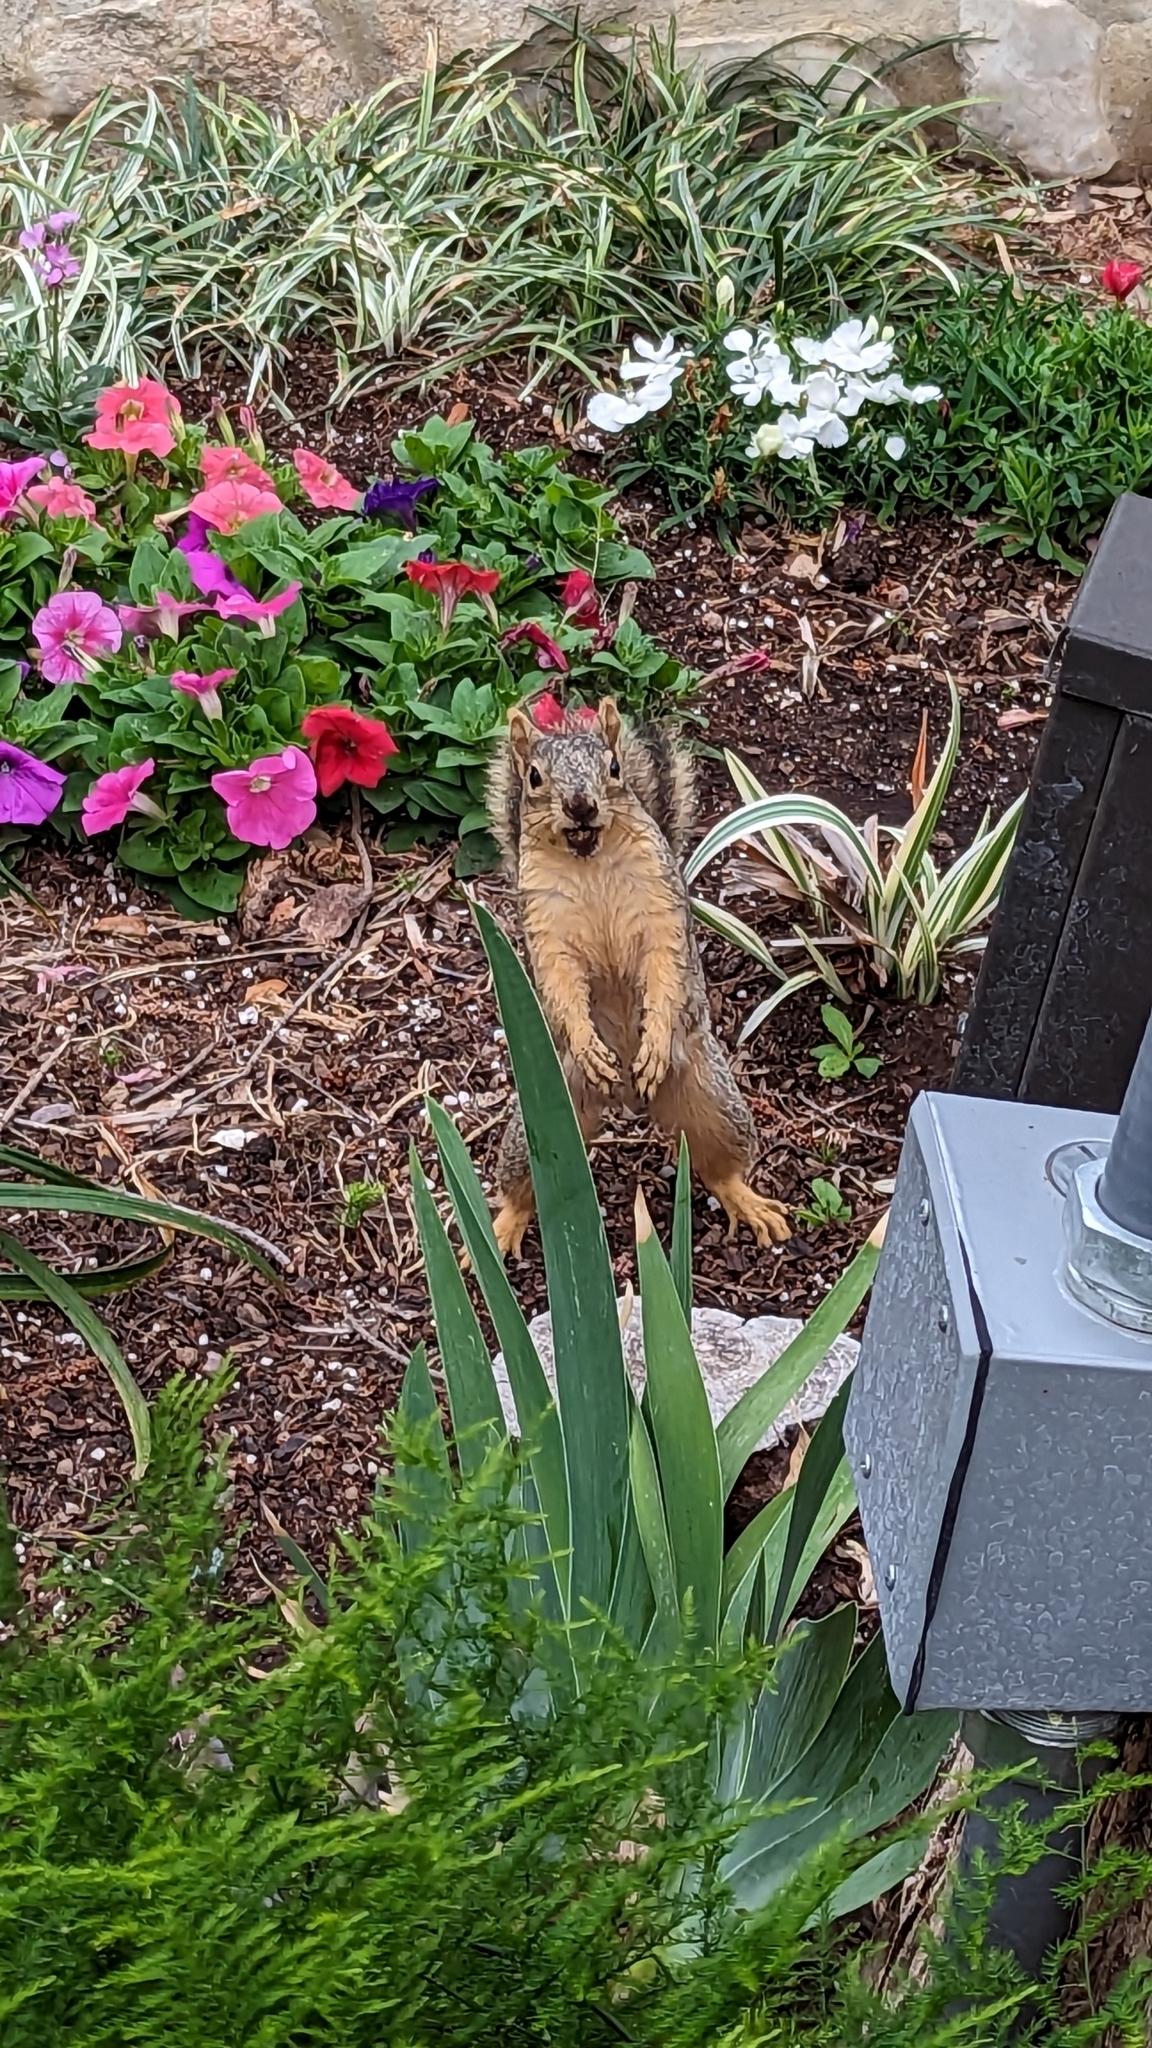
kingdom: Animalia
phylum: Chordata
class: Mammalia
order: Rodentia
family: Sciuridae
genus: Sciurus
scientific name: Sciurus niger
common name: Fox squirrel
